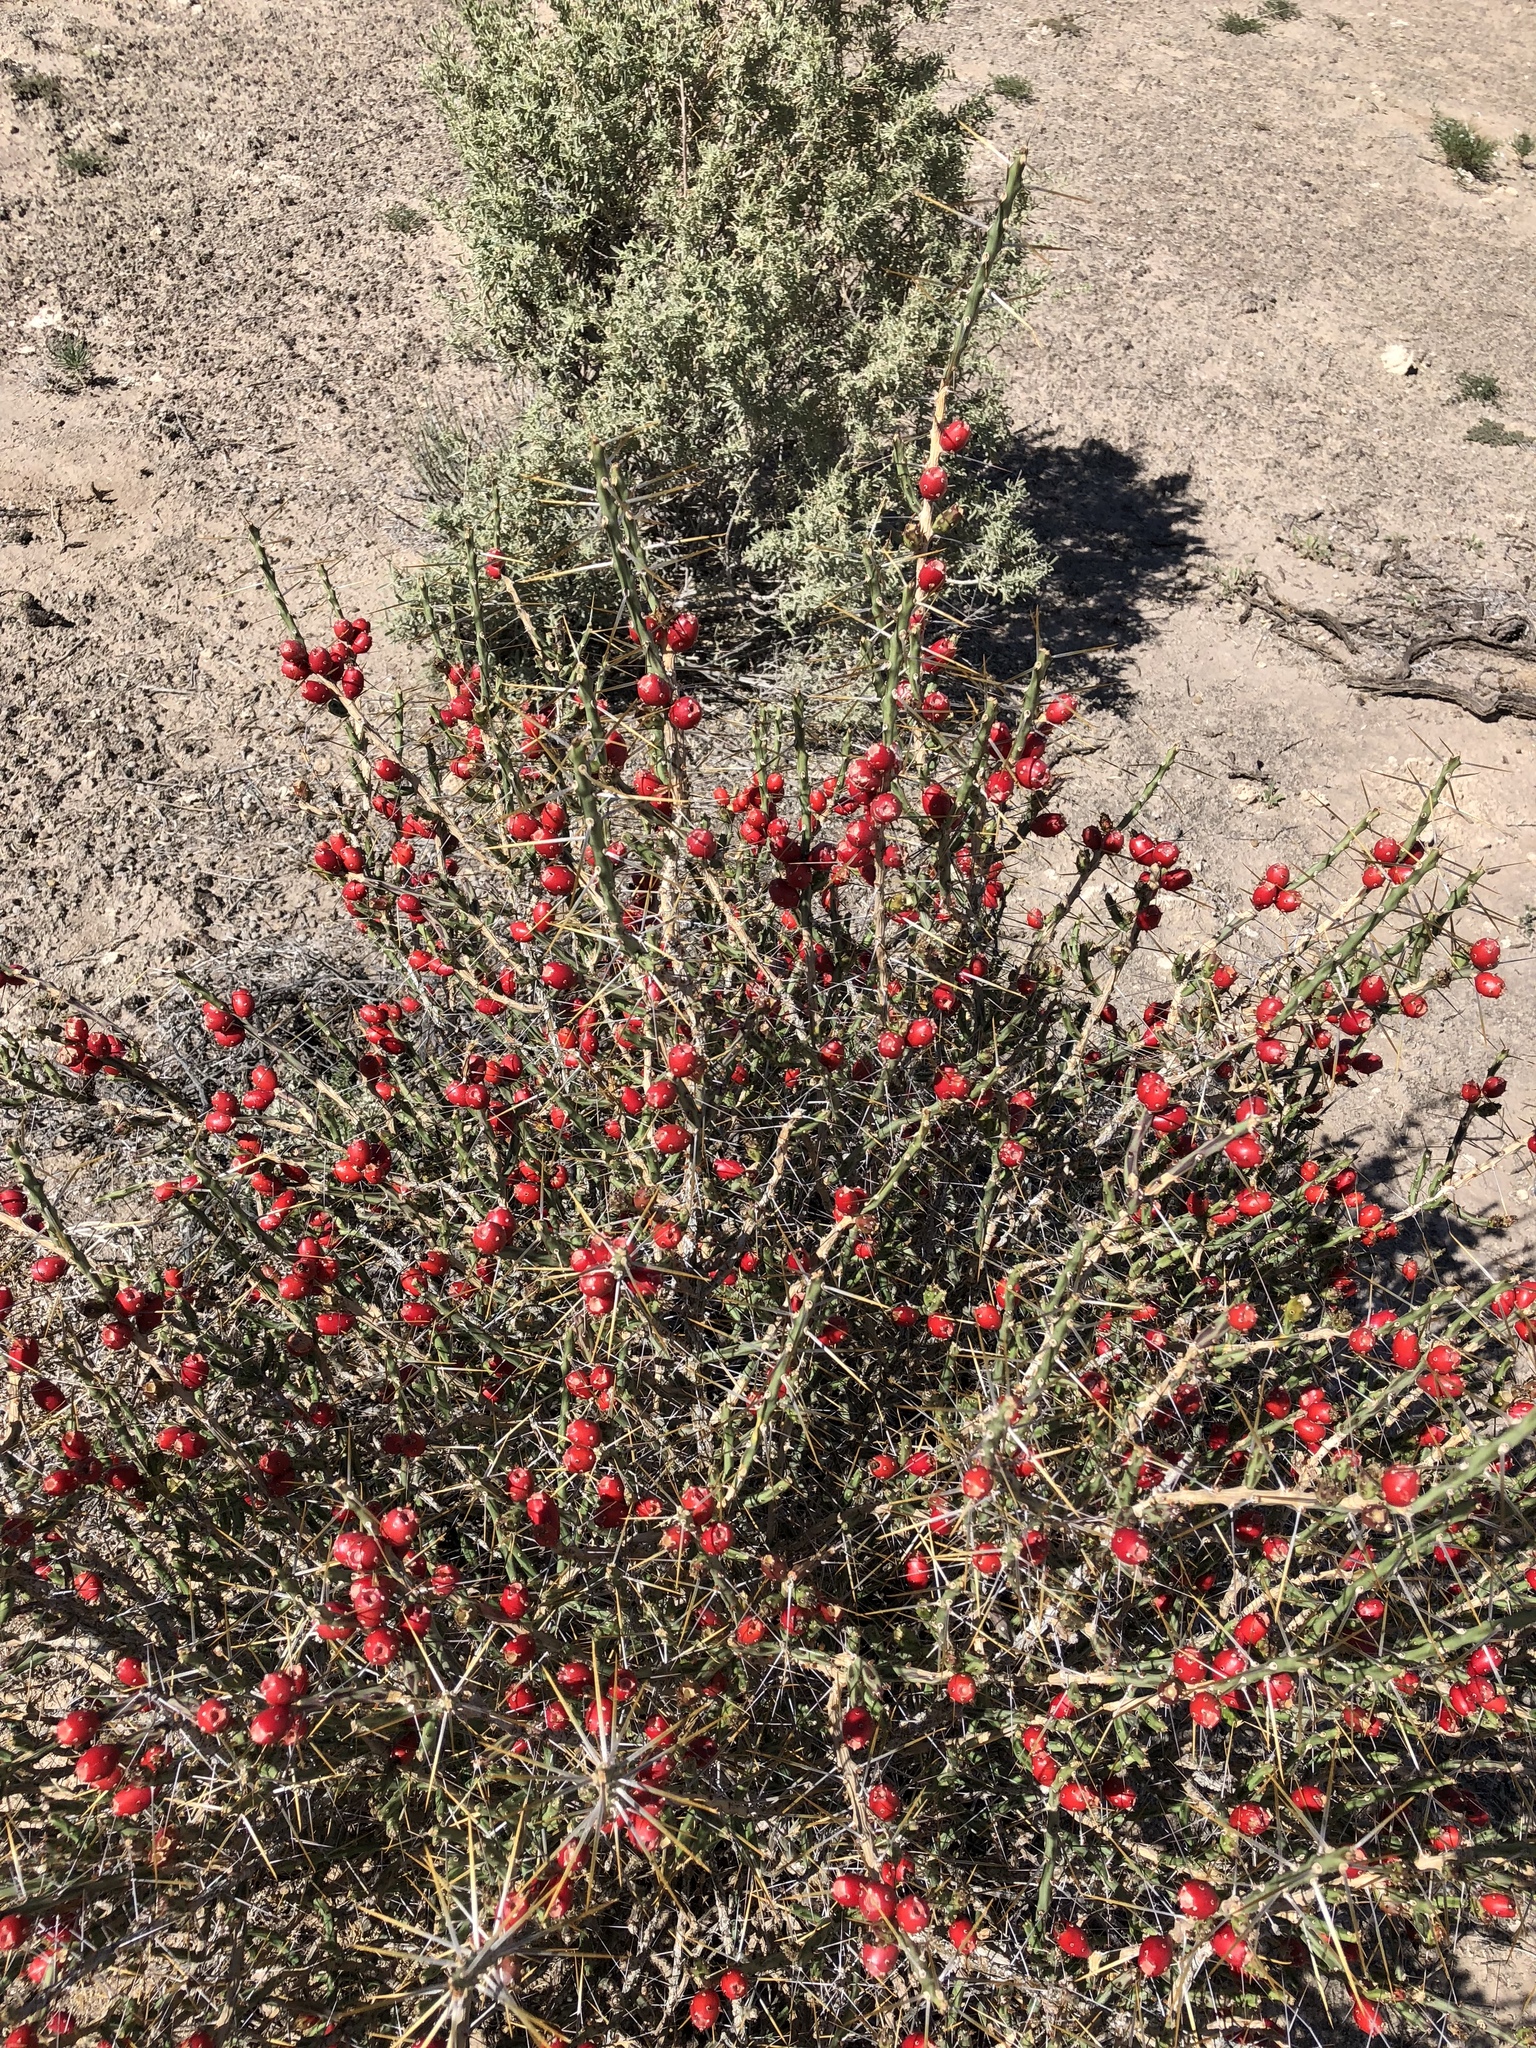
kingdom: Plantae
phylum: Tracheophyta
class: Magnoliopsida
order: Caryophyllales
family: Cactaceae
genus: Cylindropuntia
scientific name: Cylindropuntia leptocaulis
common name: Christmas cactus
